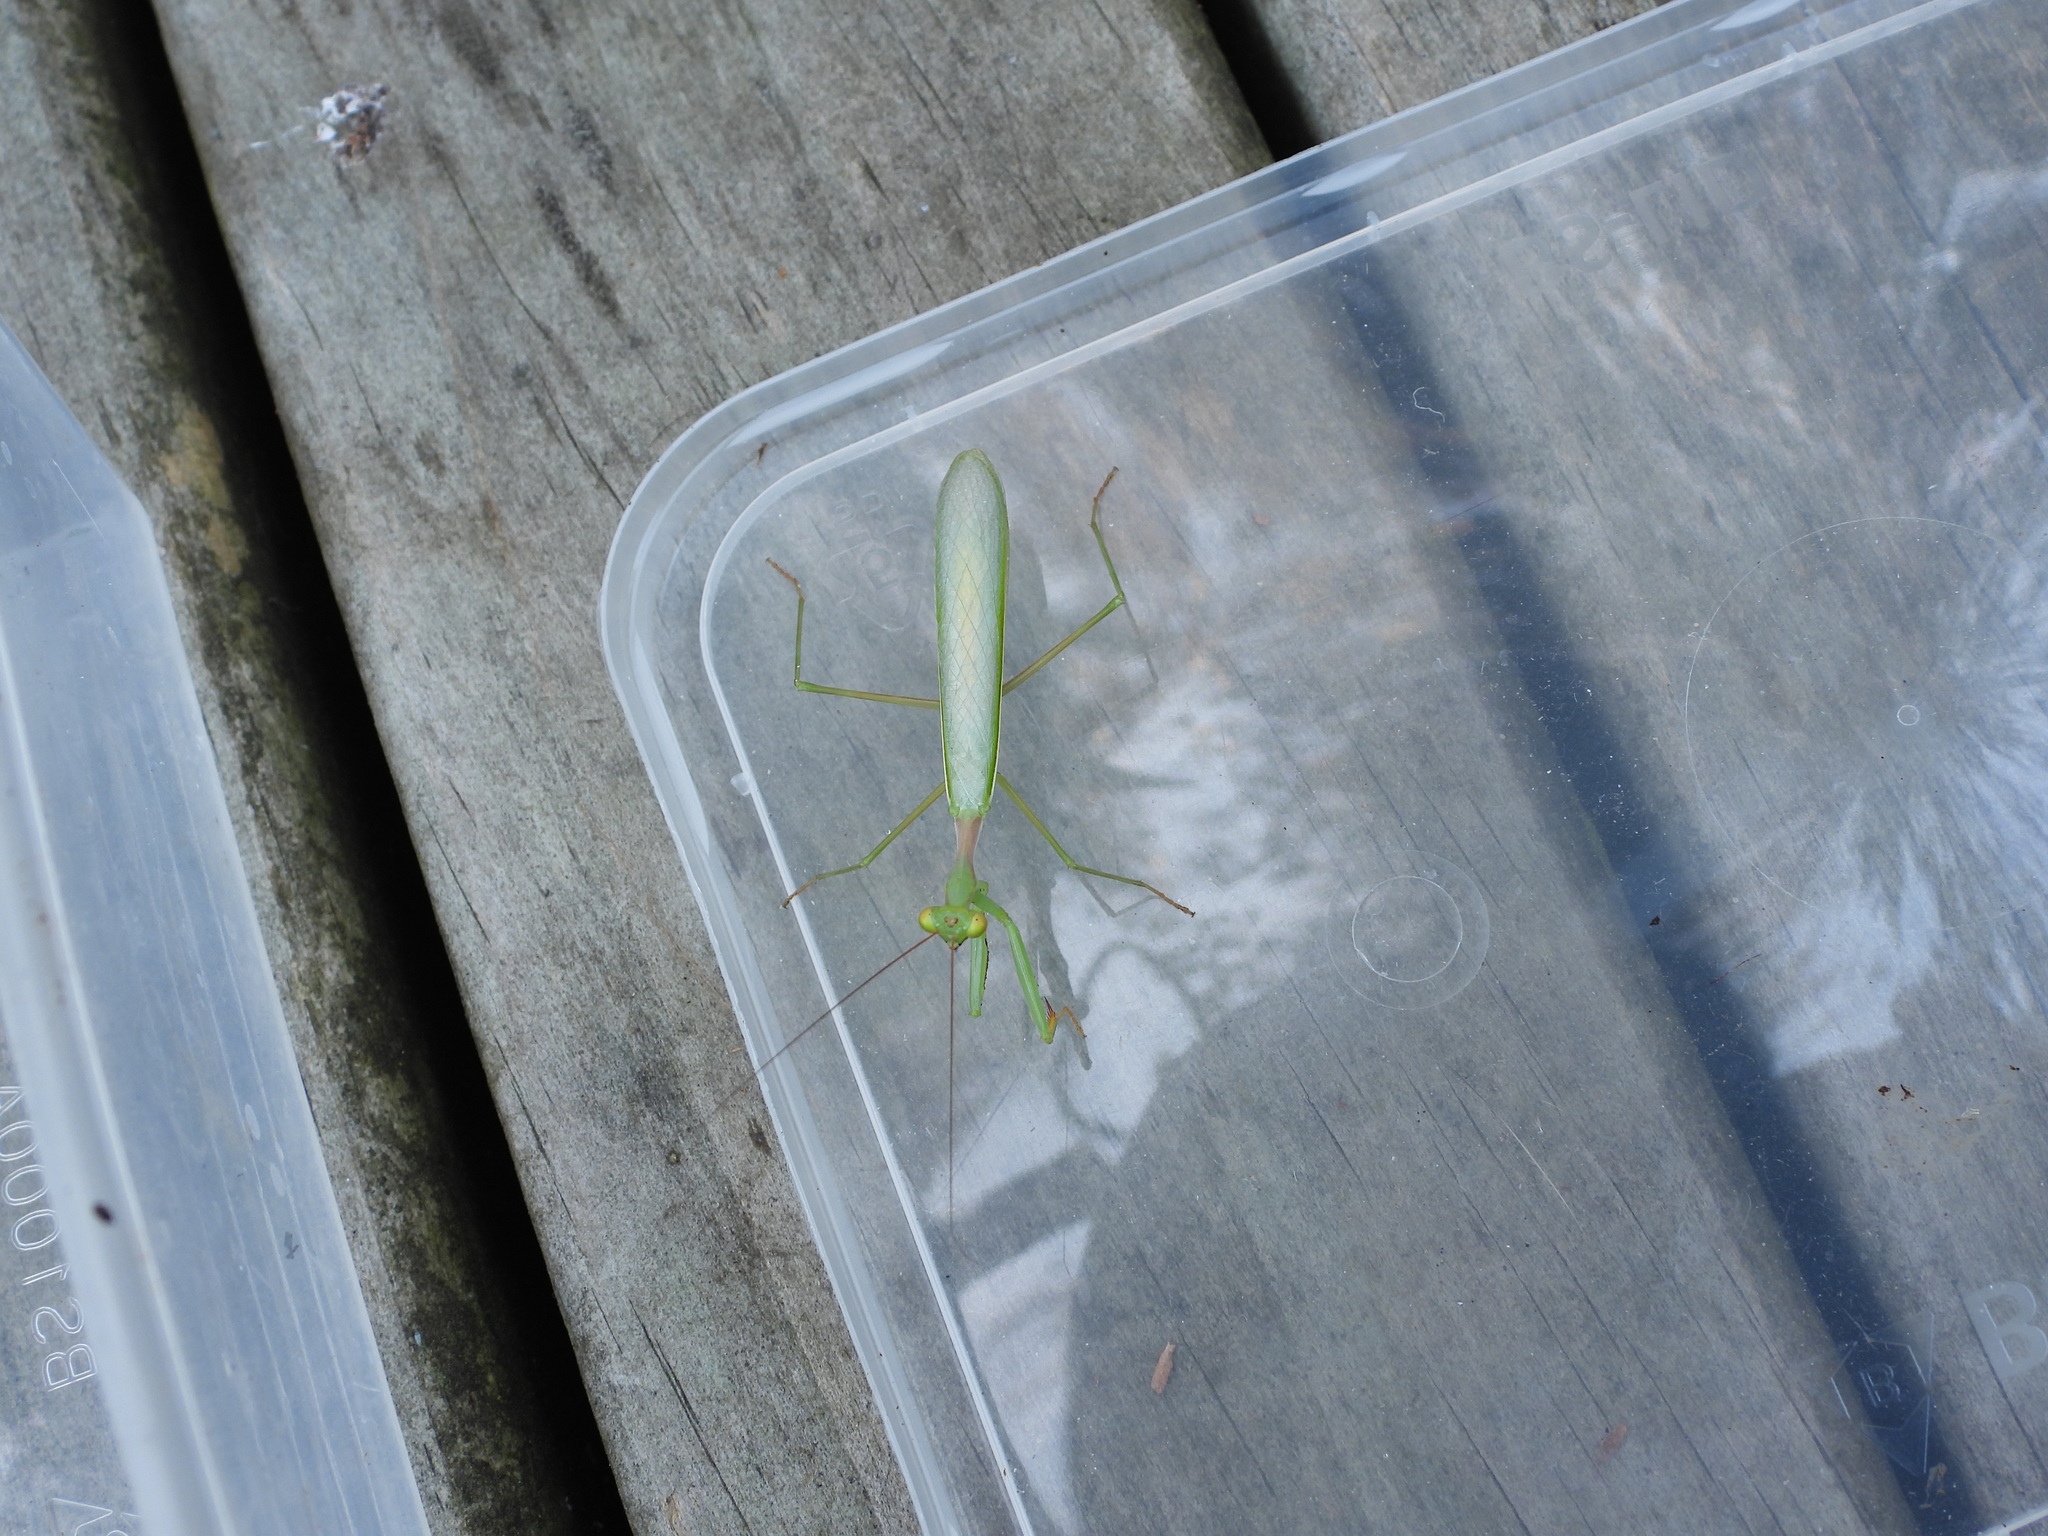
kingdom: Animalia
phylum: Arthropoda
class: Insecta
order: Mantodea
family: Miomantidae
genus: Miomantis
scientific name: Miomantis caffra
